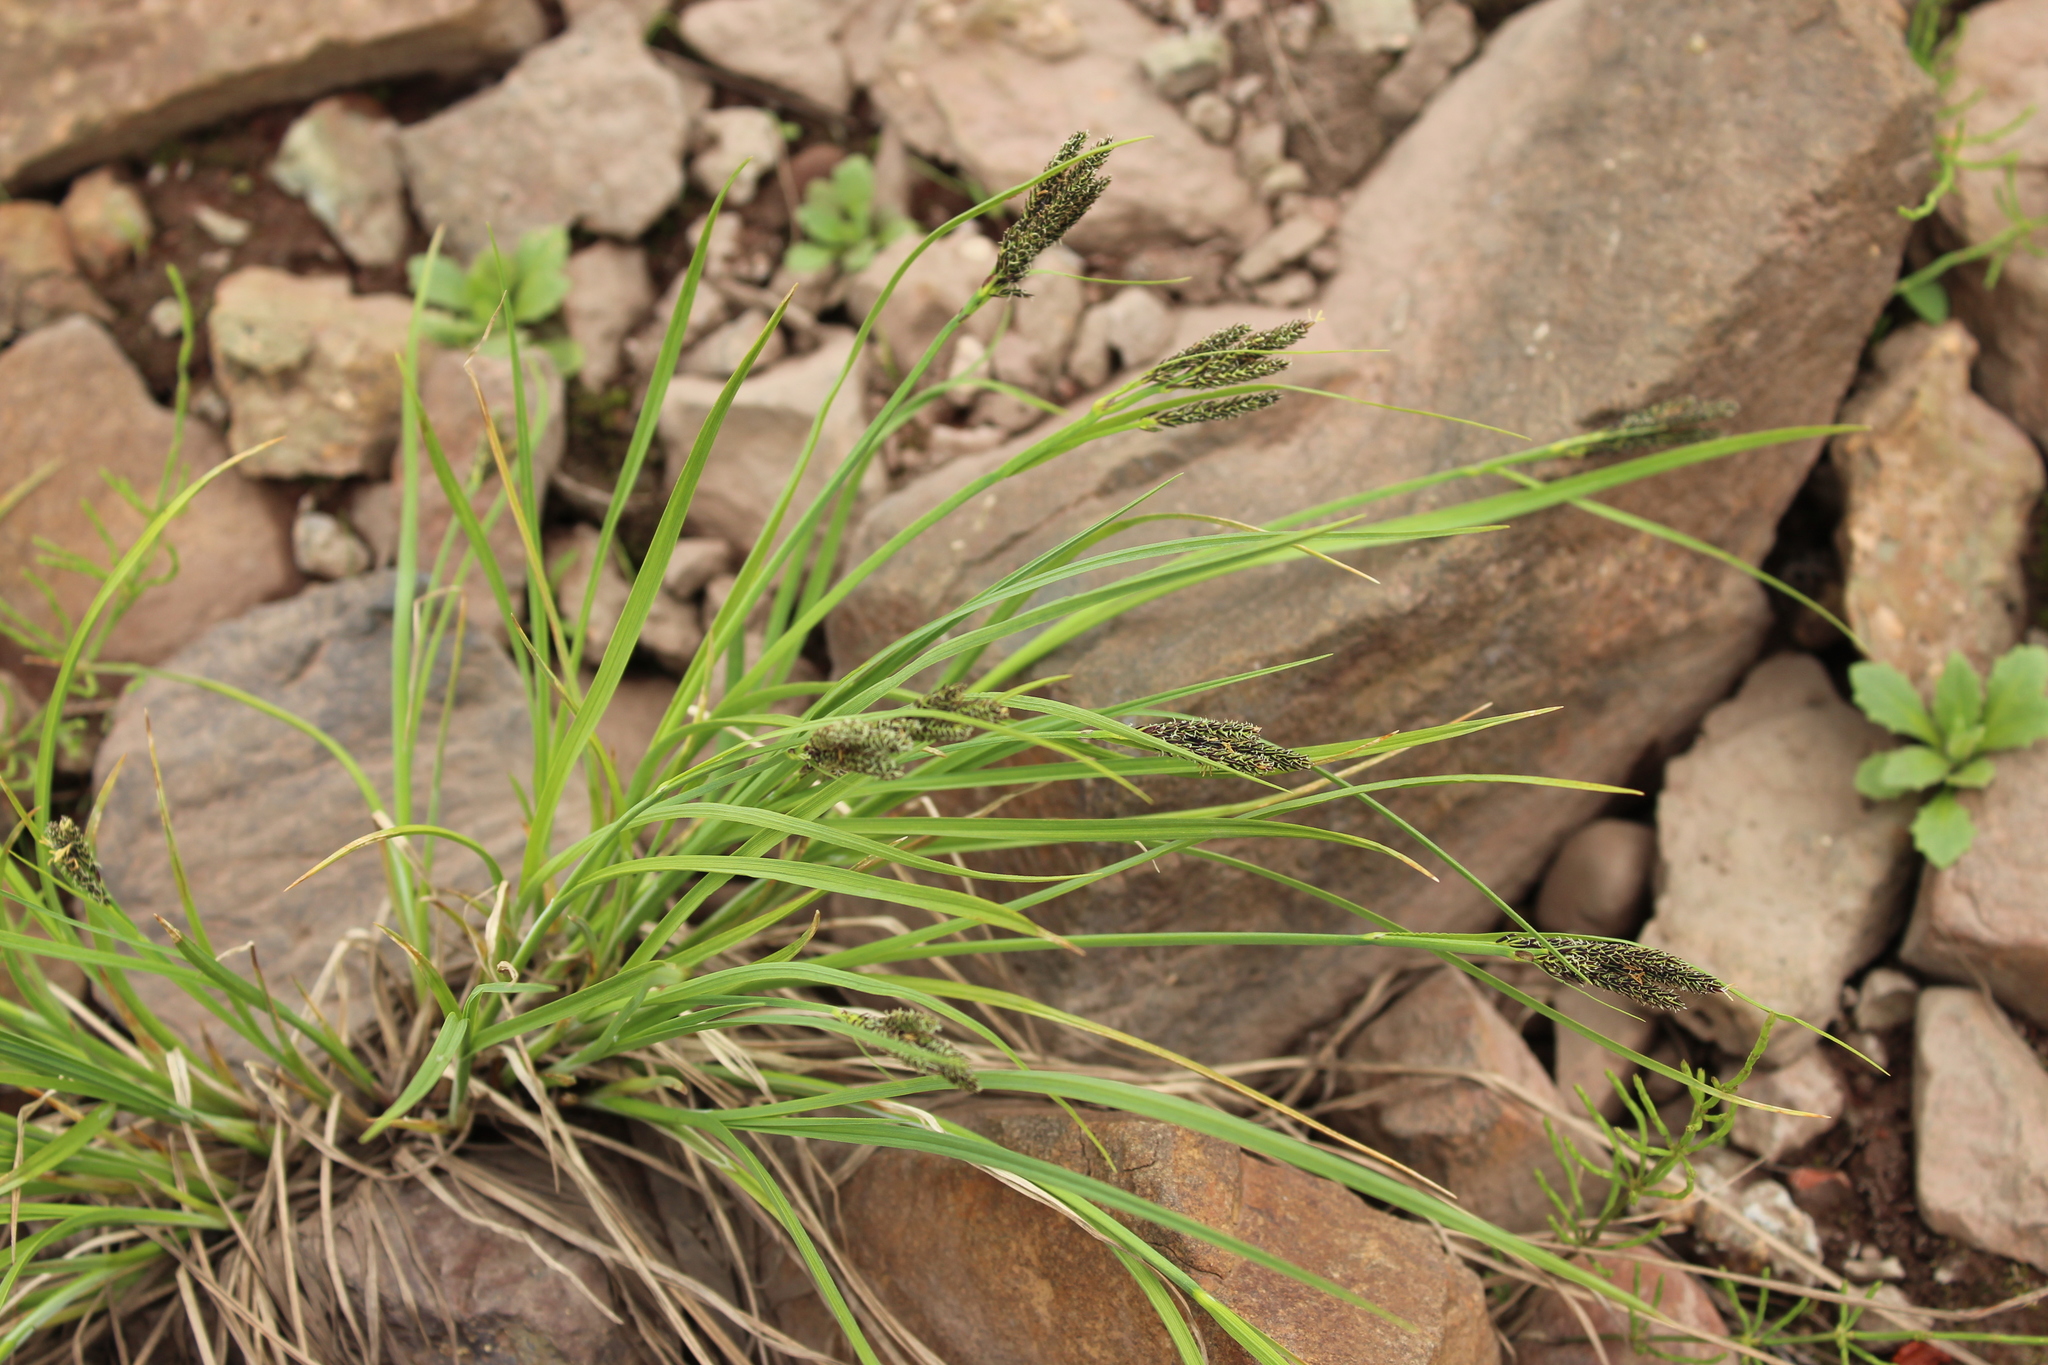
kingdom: Plantae
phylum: Tracheophyta
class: Liliopsida
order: Poales
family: Cyperaceae
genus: Carex
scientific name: Carex eleusinoides
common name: Goosegrass sedge
